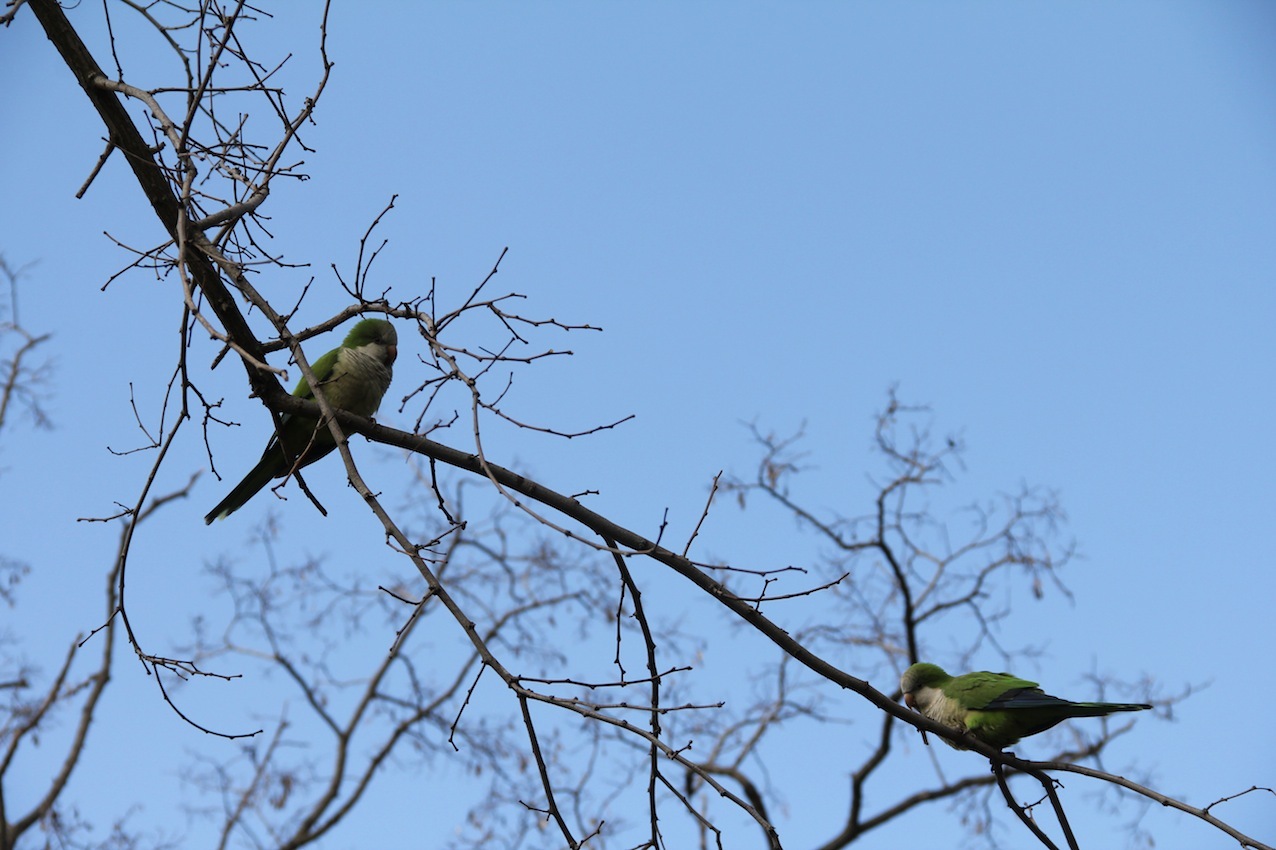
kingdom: Animalia
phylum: Chordata
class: Aves
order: Psittaciformes
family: Psittacidae
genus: Myiopsitta
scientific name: Myiopsitta monachus
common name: Monk parakeet
